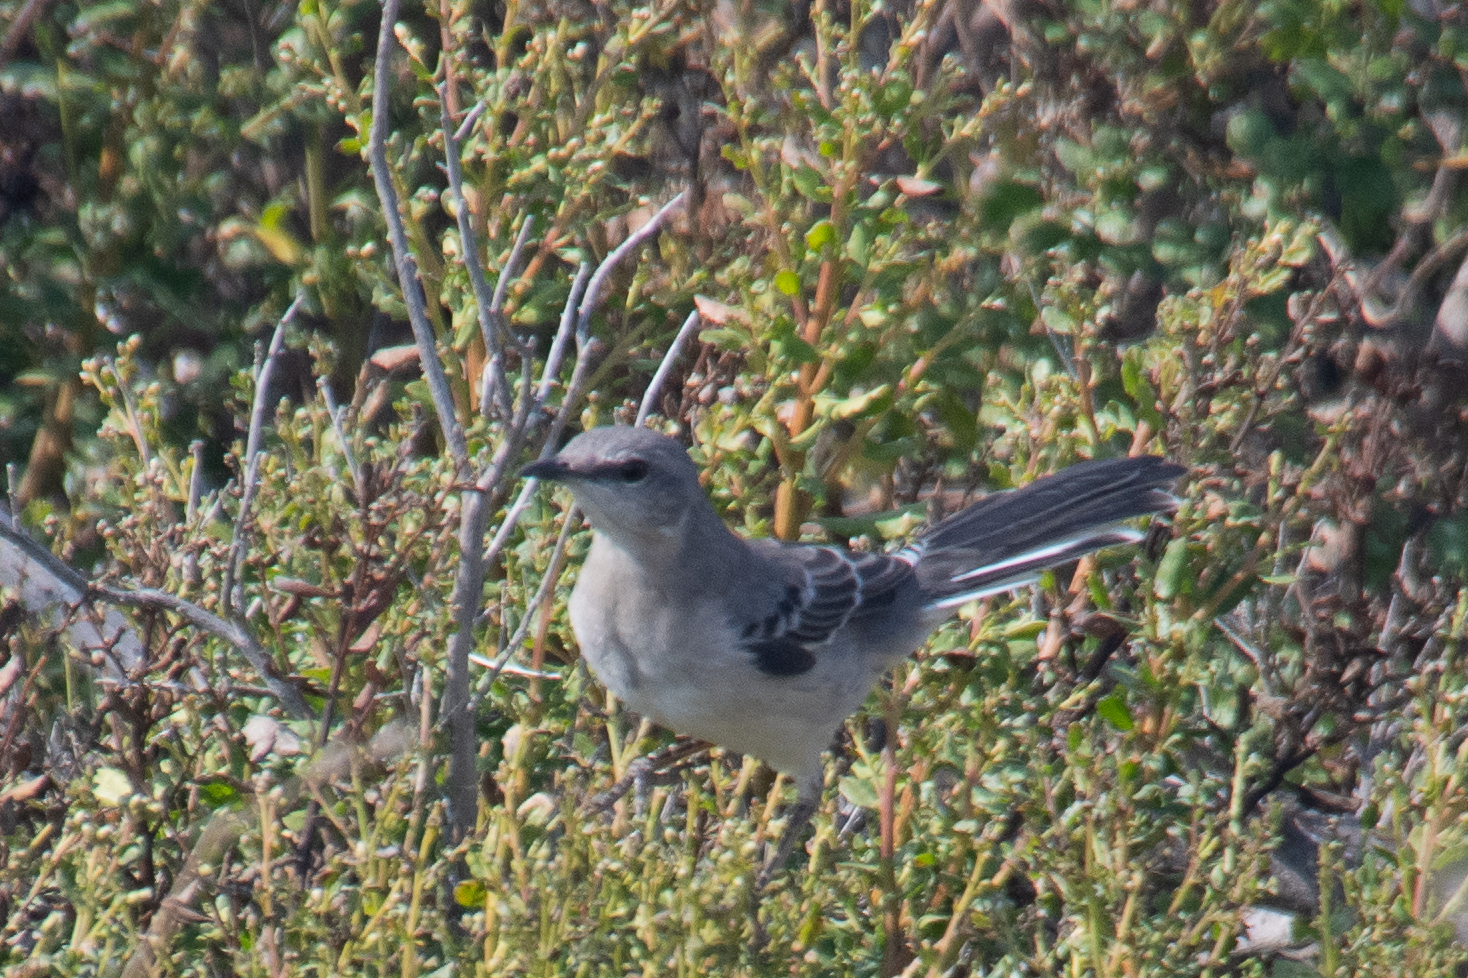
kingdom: Animalia
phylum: Chordata
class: Aves
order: Passeriformes
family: Mimidae
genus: Mimus
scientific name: Mimus polyglottos
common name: Northern mockingbird
